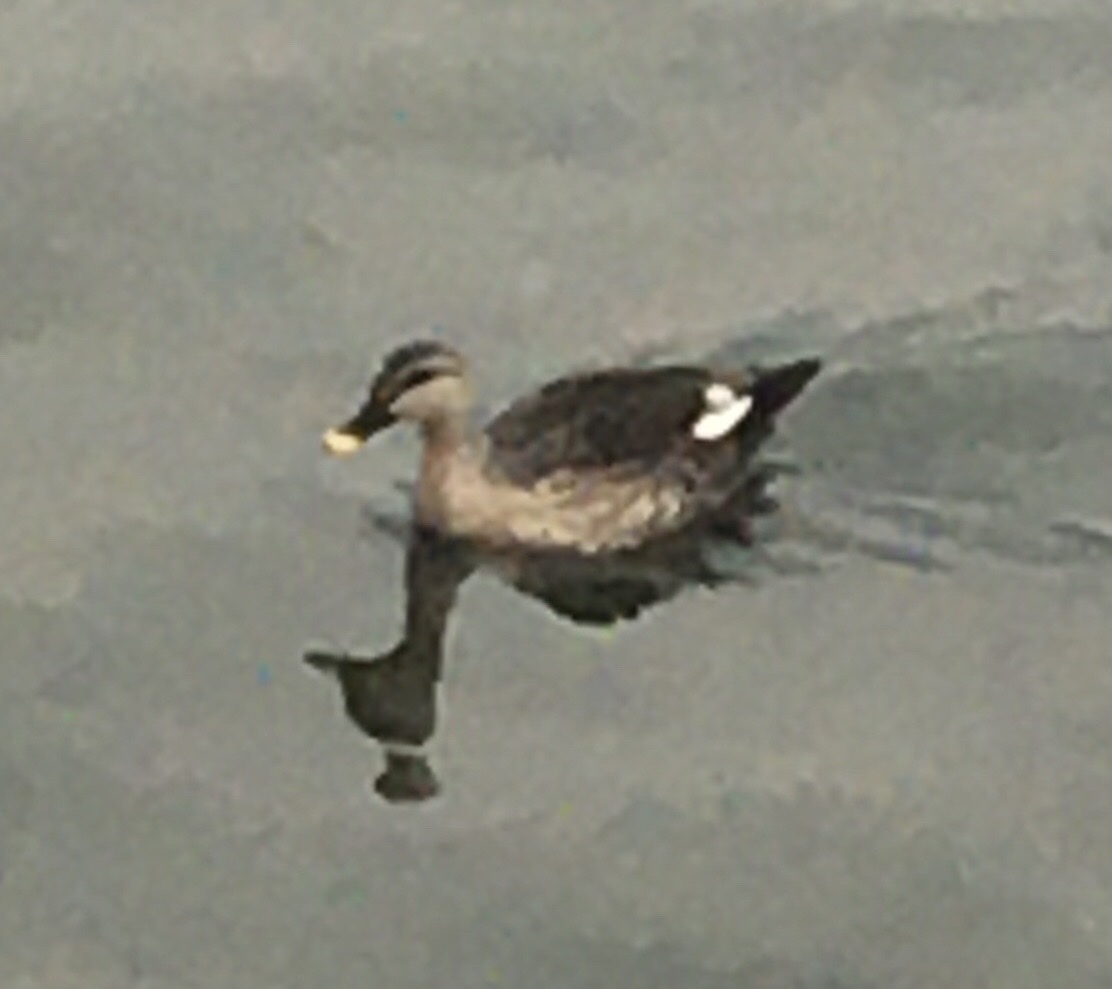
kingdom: Animalia
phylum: Chordata
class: Aves
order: Anseriformes
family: Anatidae
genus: Anas
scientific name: Anas poecilorhyncha
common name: Indian spot-billed duck
